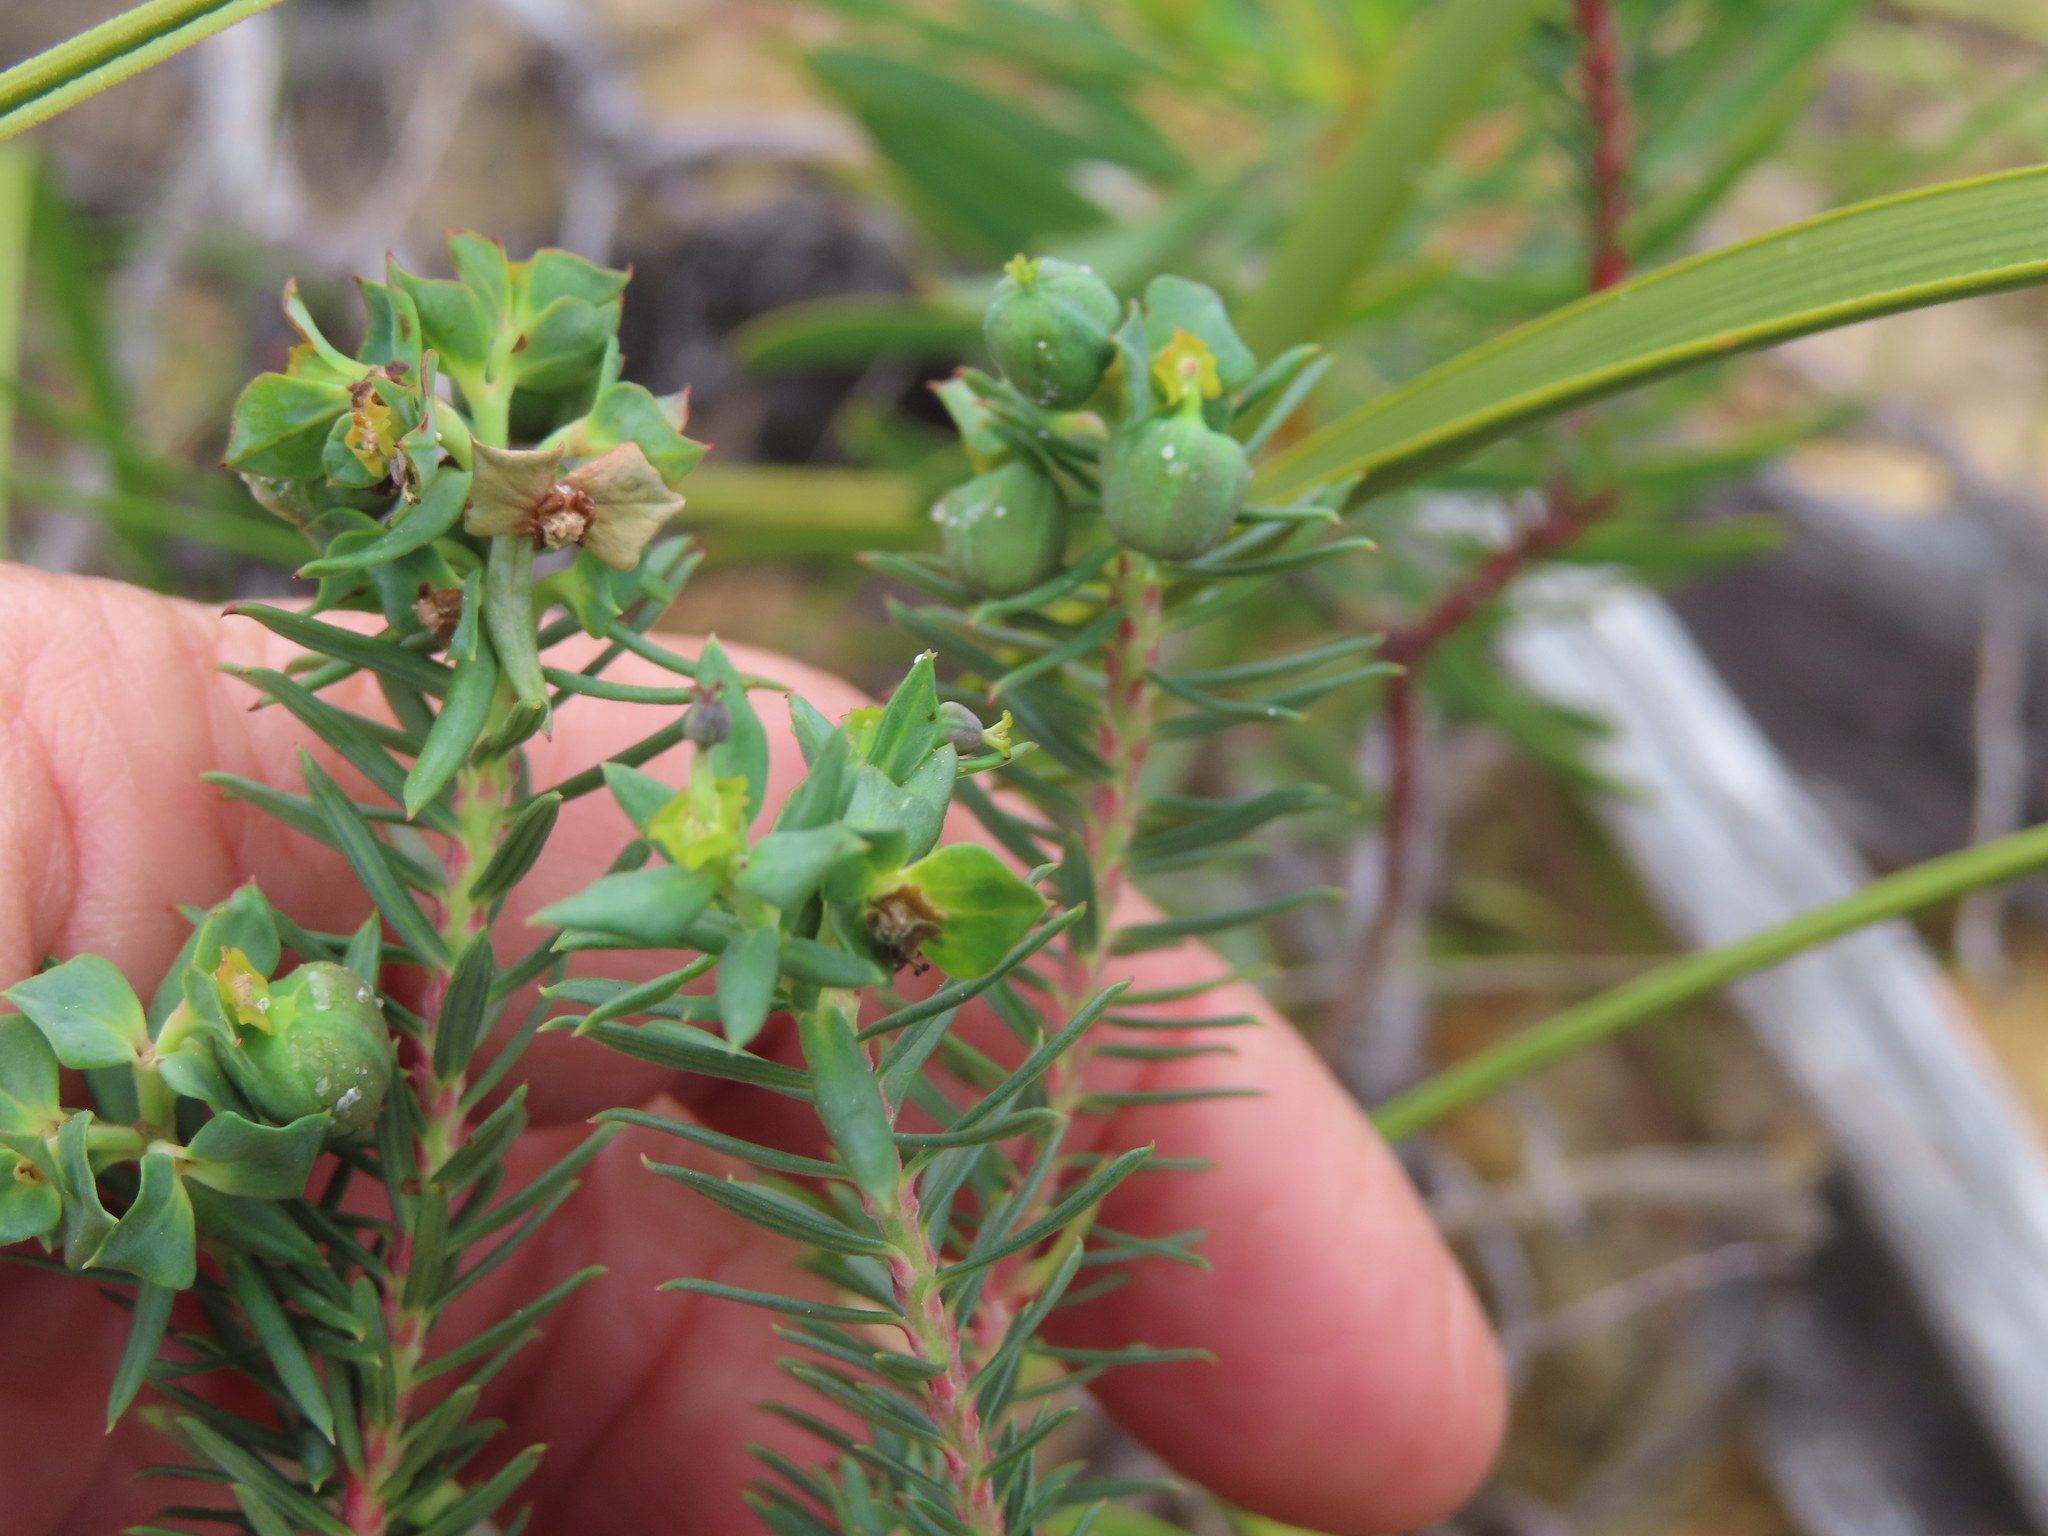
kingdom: Plantae
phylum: Tracheophyta
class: Magnoliopsida
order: Malpighiales
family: Euphorbiaceae
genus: Euphorbia
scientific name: Euphorbia genistoides
